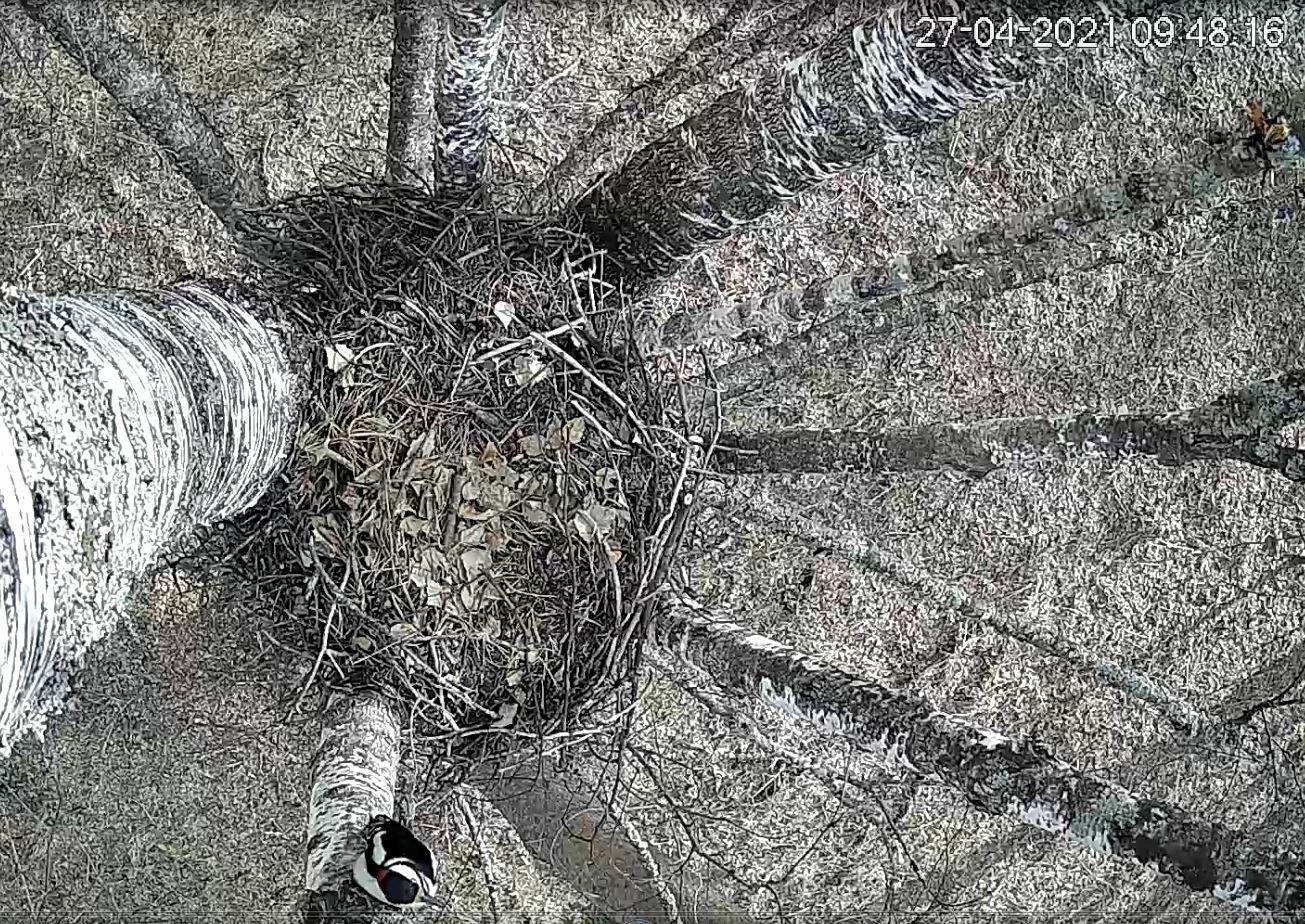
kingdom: Animalia
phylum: Chordata
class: Aves
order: Piciformes
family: Picidae
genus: Dendrocopos
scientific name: Dendrocopos major
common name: Great spotted woodpecker
